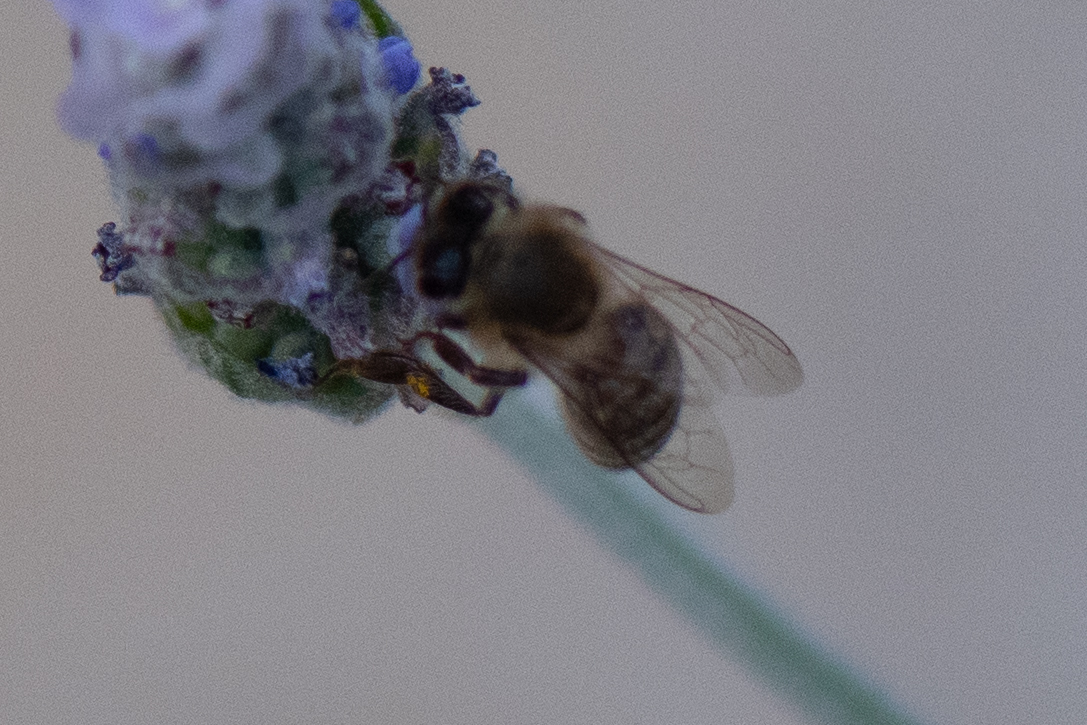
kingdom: Animalia
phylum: Arthropoda
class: Insecta
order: Hymenoptera
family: Apidae
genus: Apis
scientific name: Apis mellifera
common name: Honey bee
